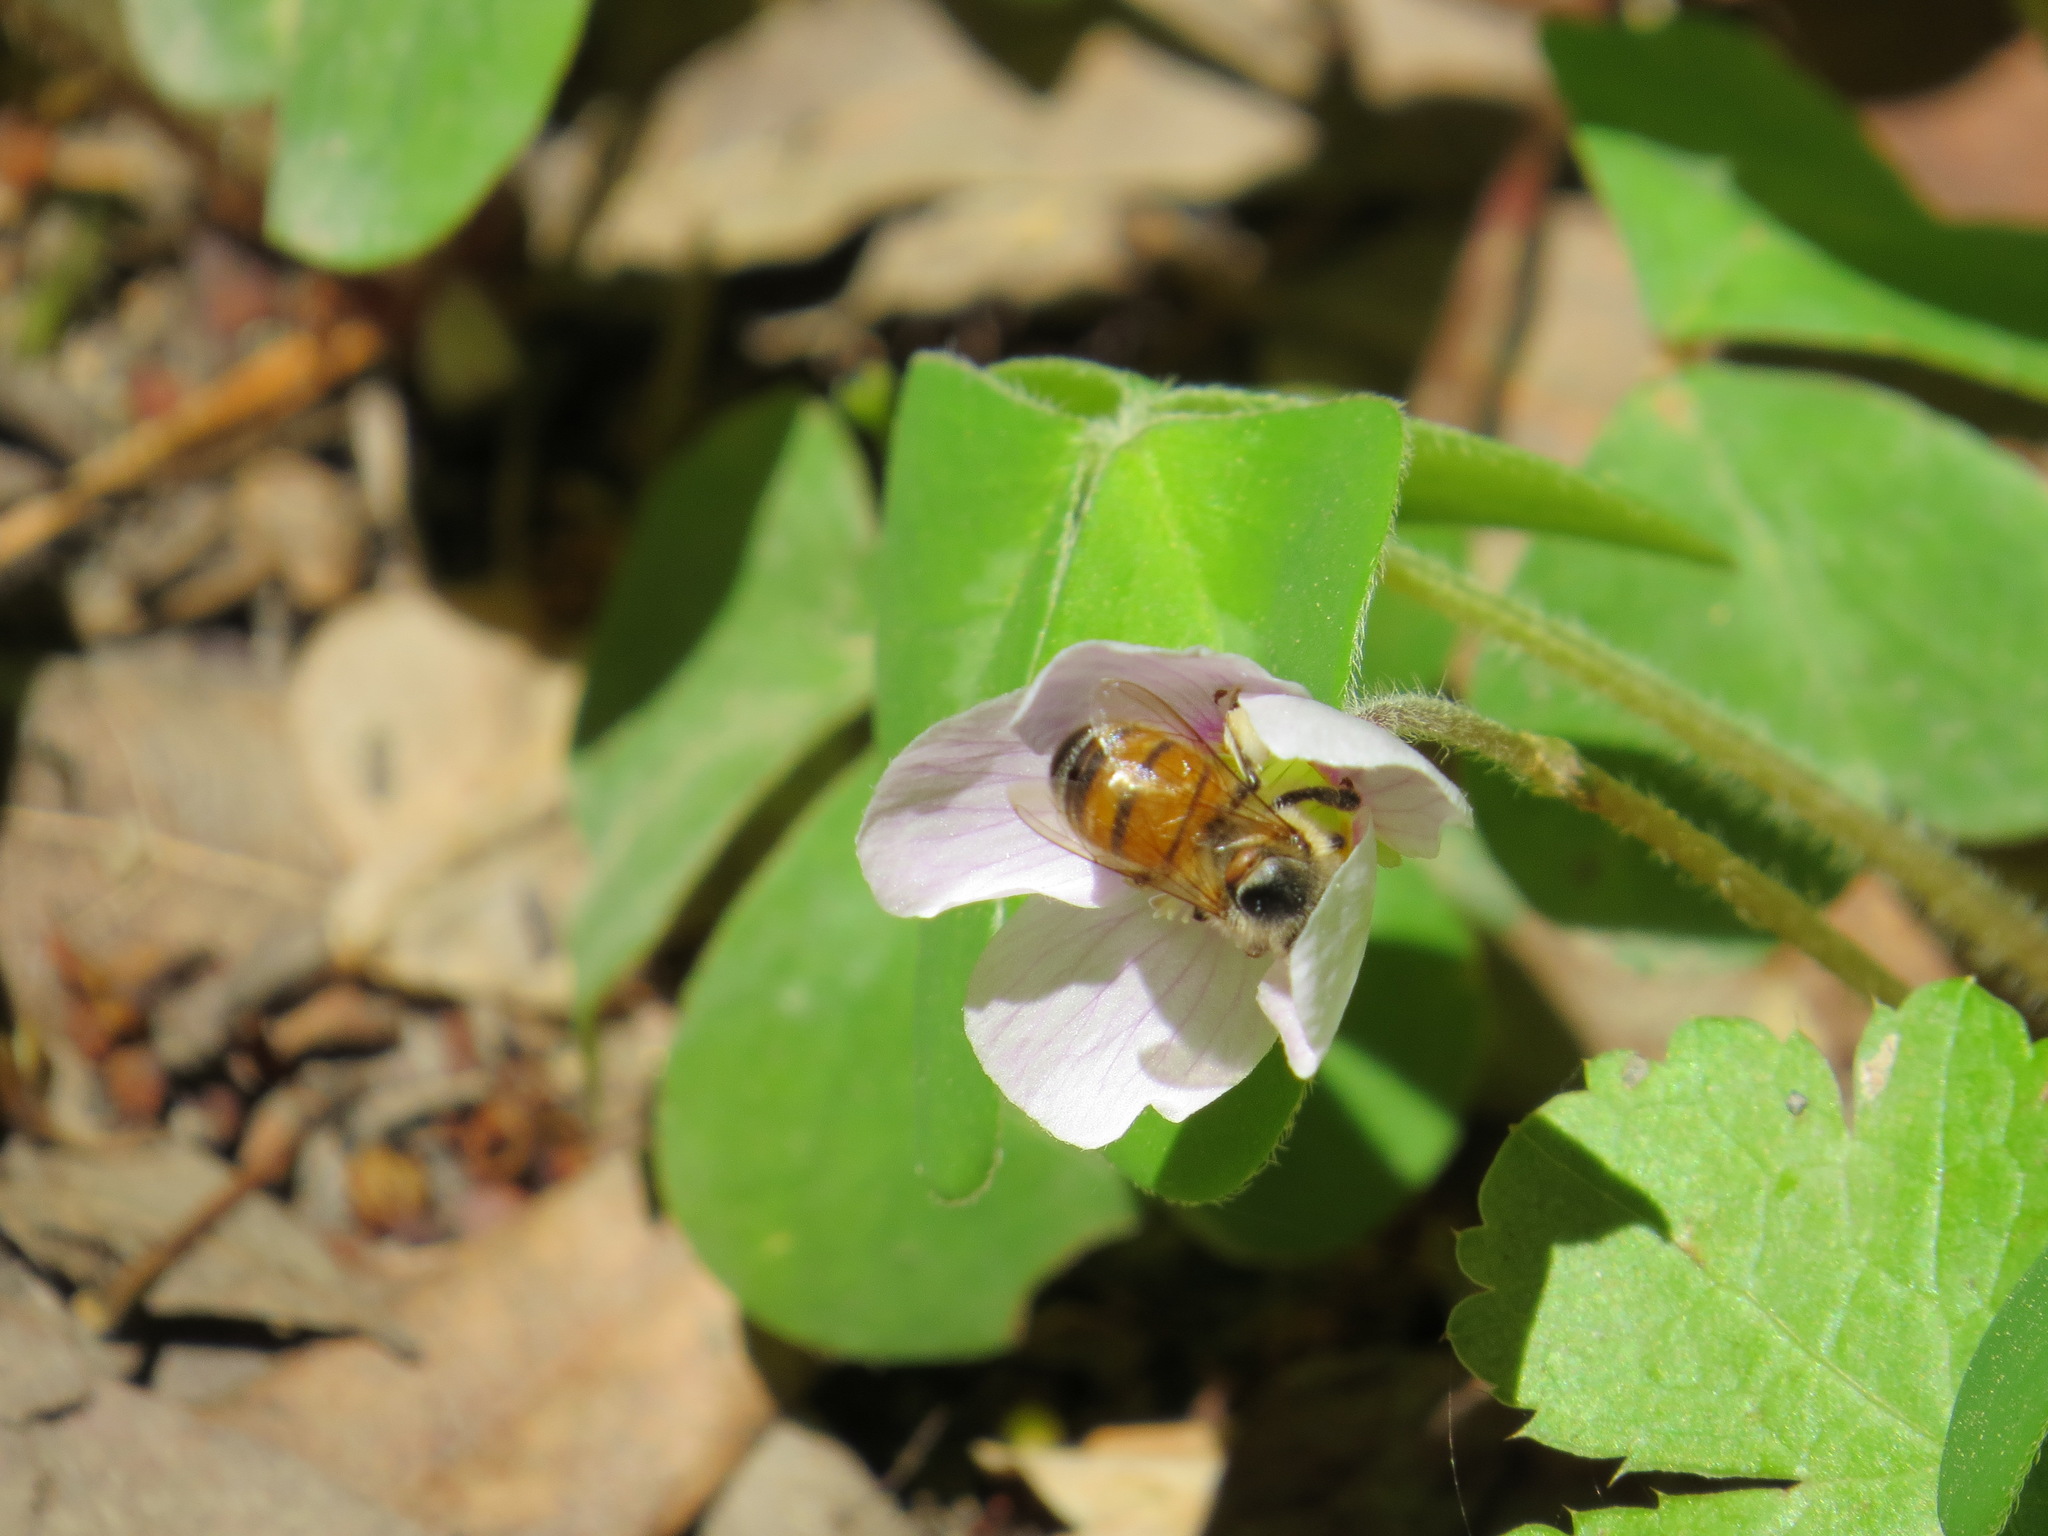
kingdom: Animalia
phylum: Arthropoda
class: Insecta
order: Hymenoptera
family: Apidae
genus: Apis
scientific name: Apis mellifera
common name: Honey bee
